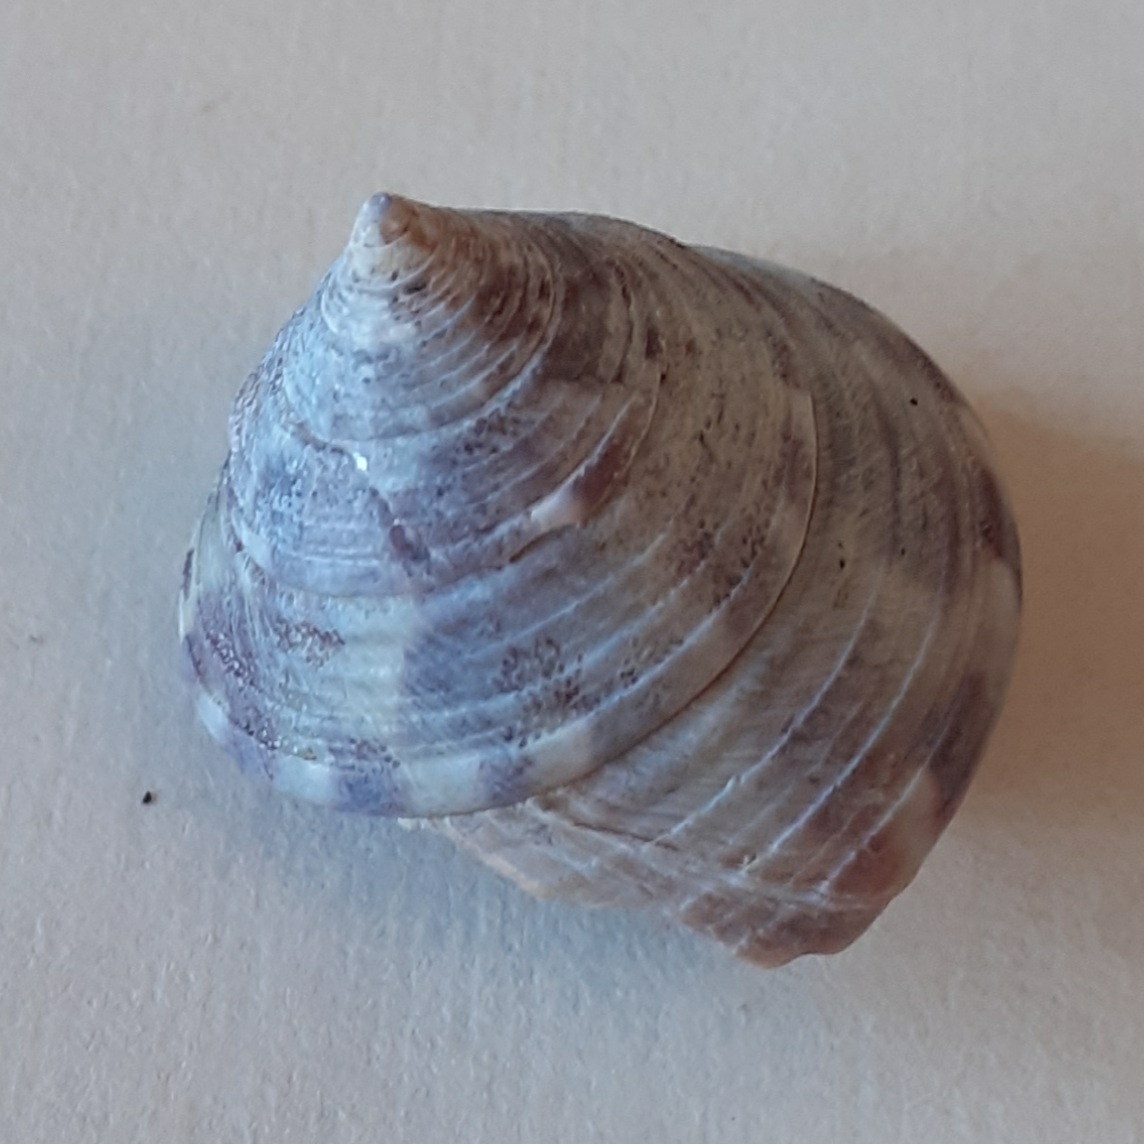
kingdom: Animalia
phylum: Mollusca
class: Gastropoda
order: Trochida
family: Calliostomatidae
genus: Calliostoma
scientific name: Calliostoma zizyphinum
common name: Painted top shell
